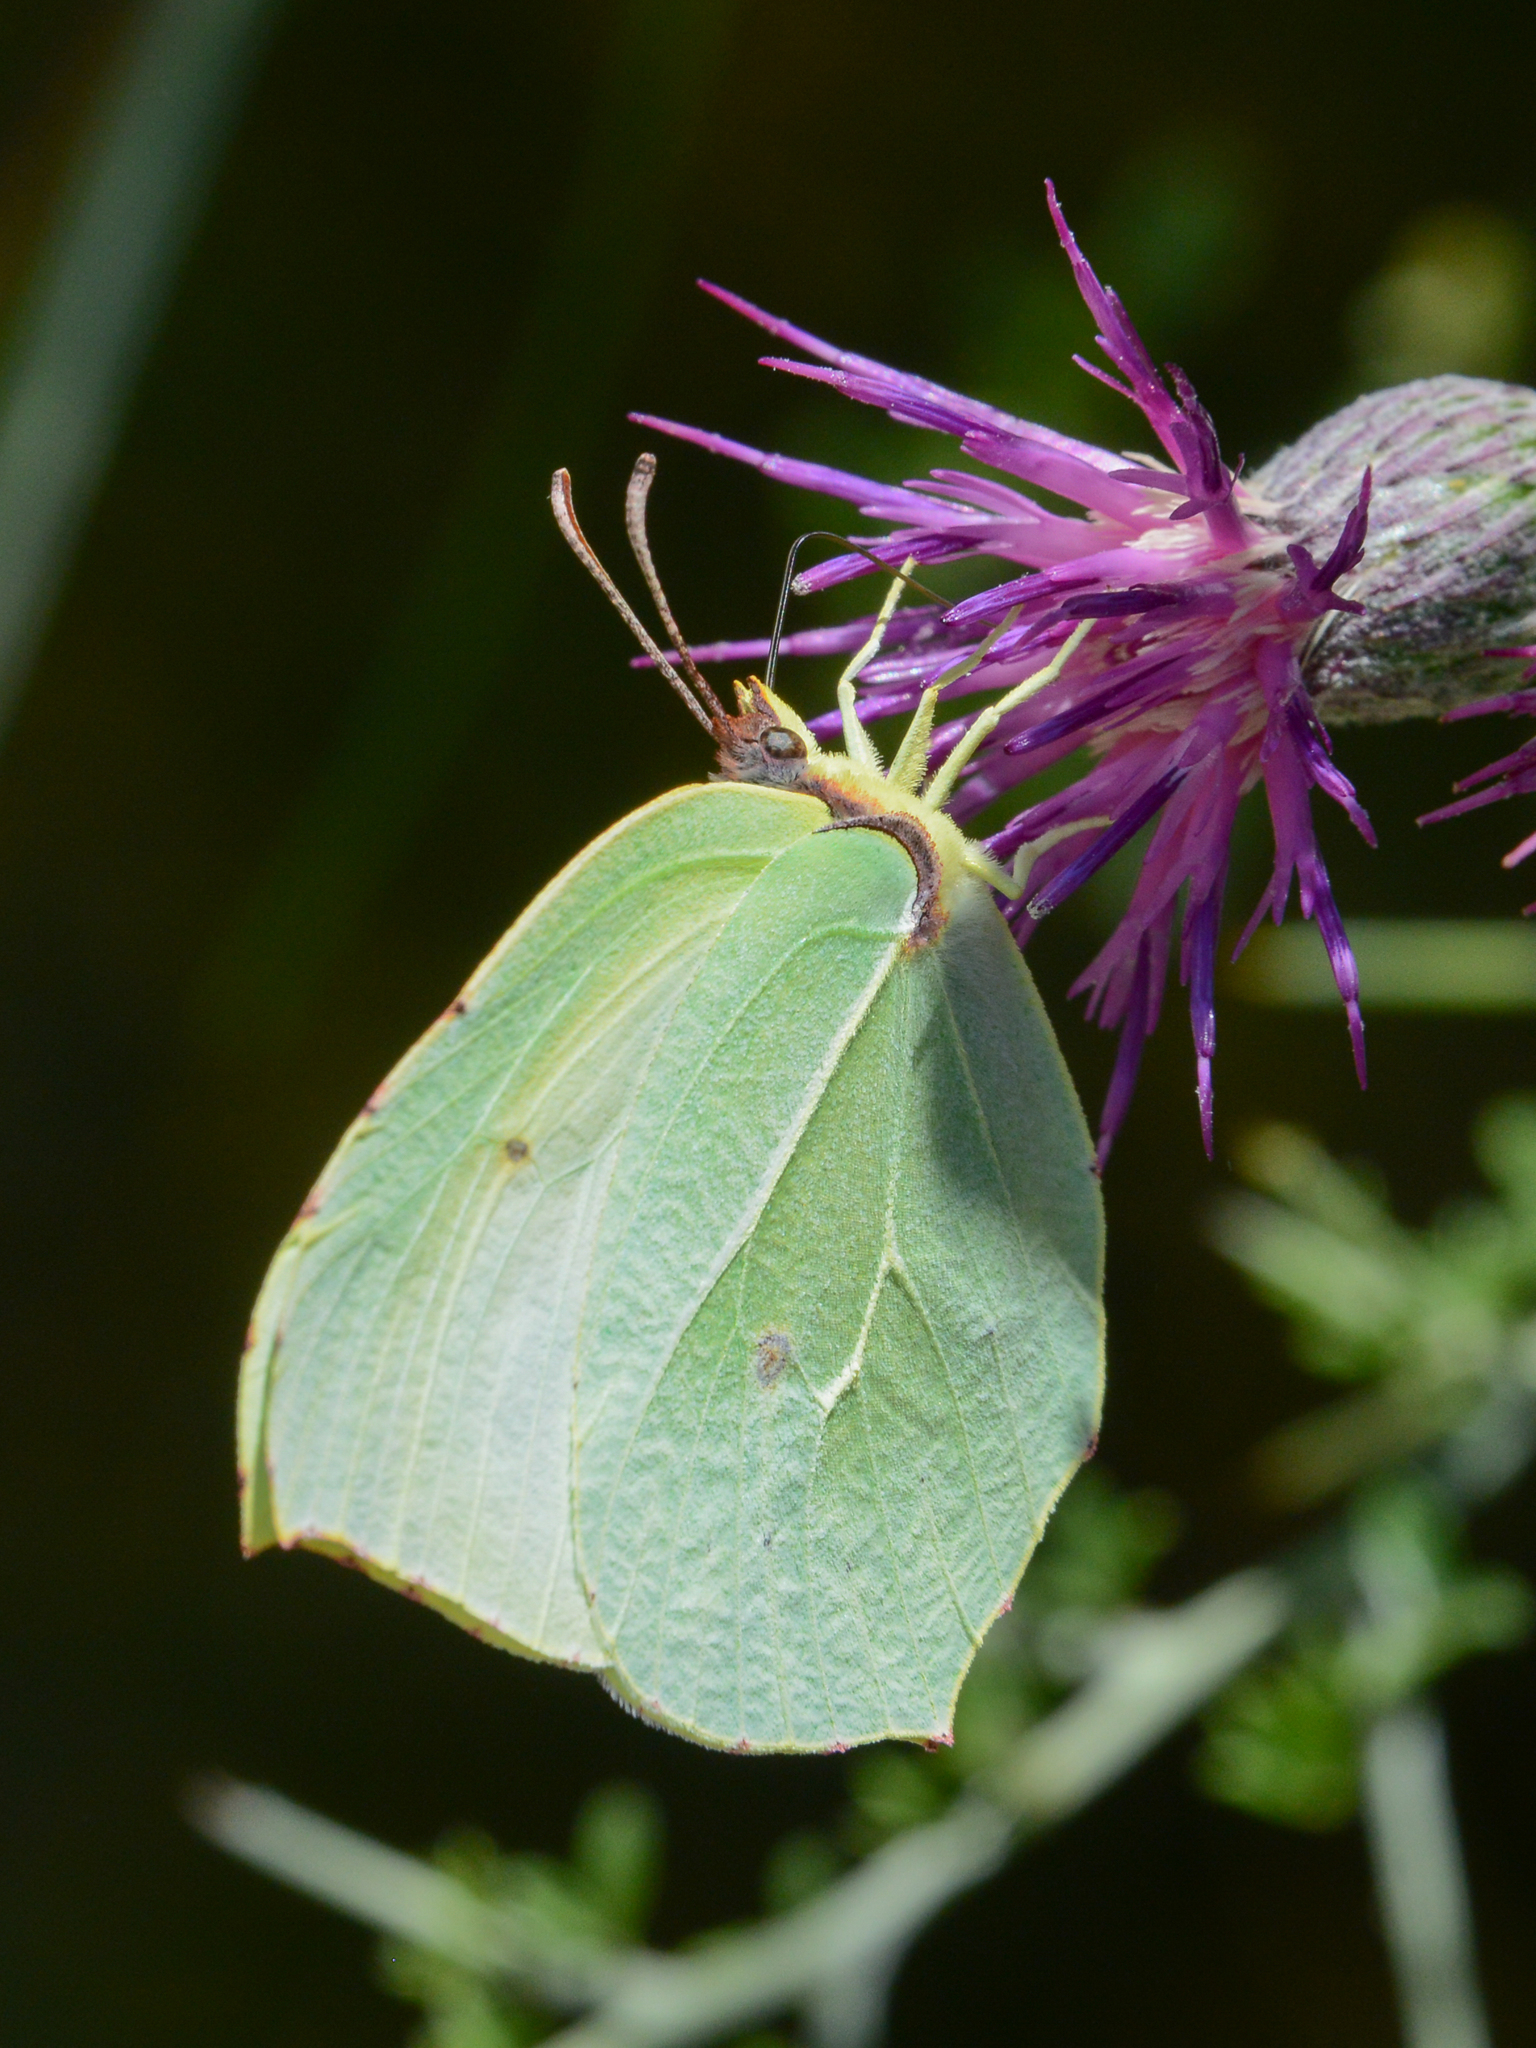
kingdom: Animalia
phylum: Arthropoda
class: Insecta
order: Lepidoptera
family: Pieridae
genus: Gonepteryx
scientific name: Gonepteryx cleopatra
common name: Cleopatra
